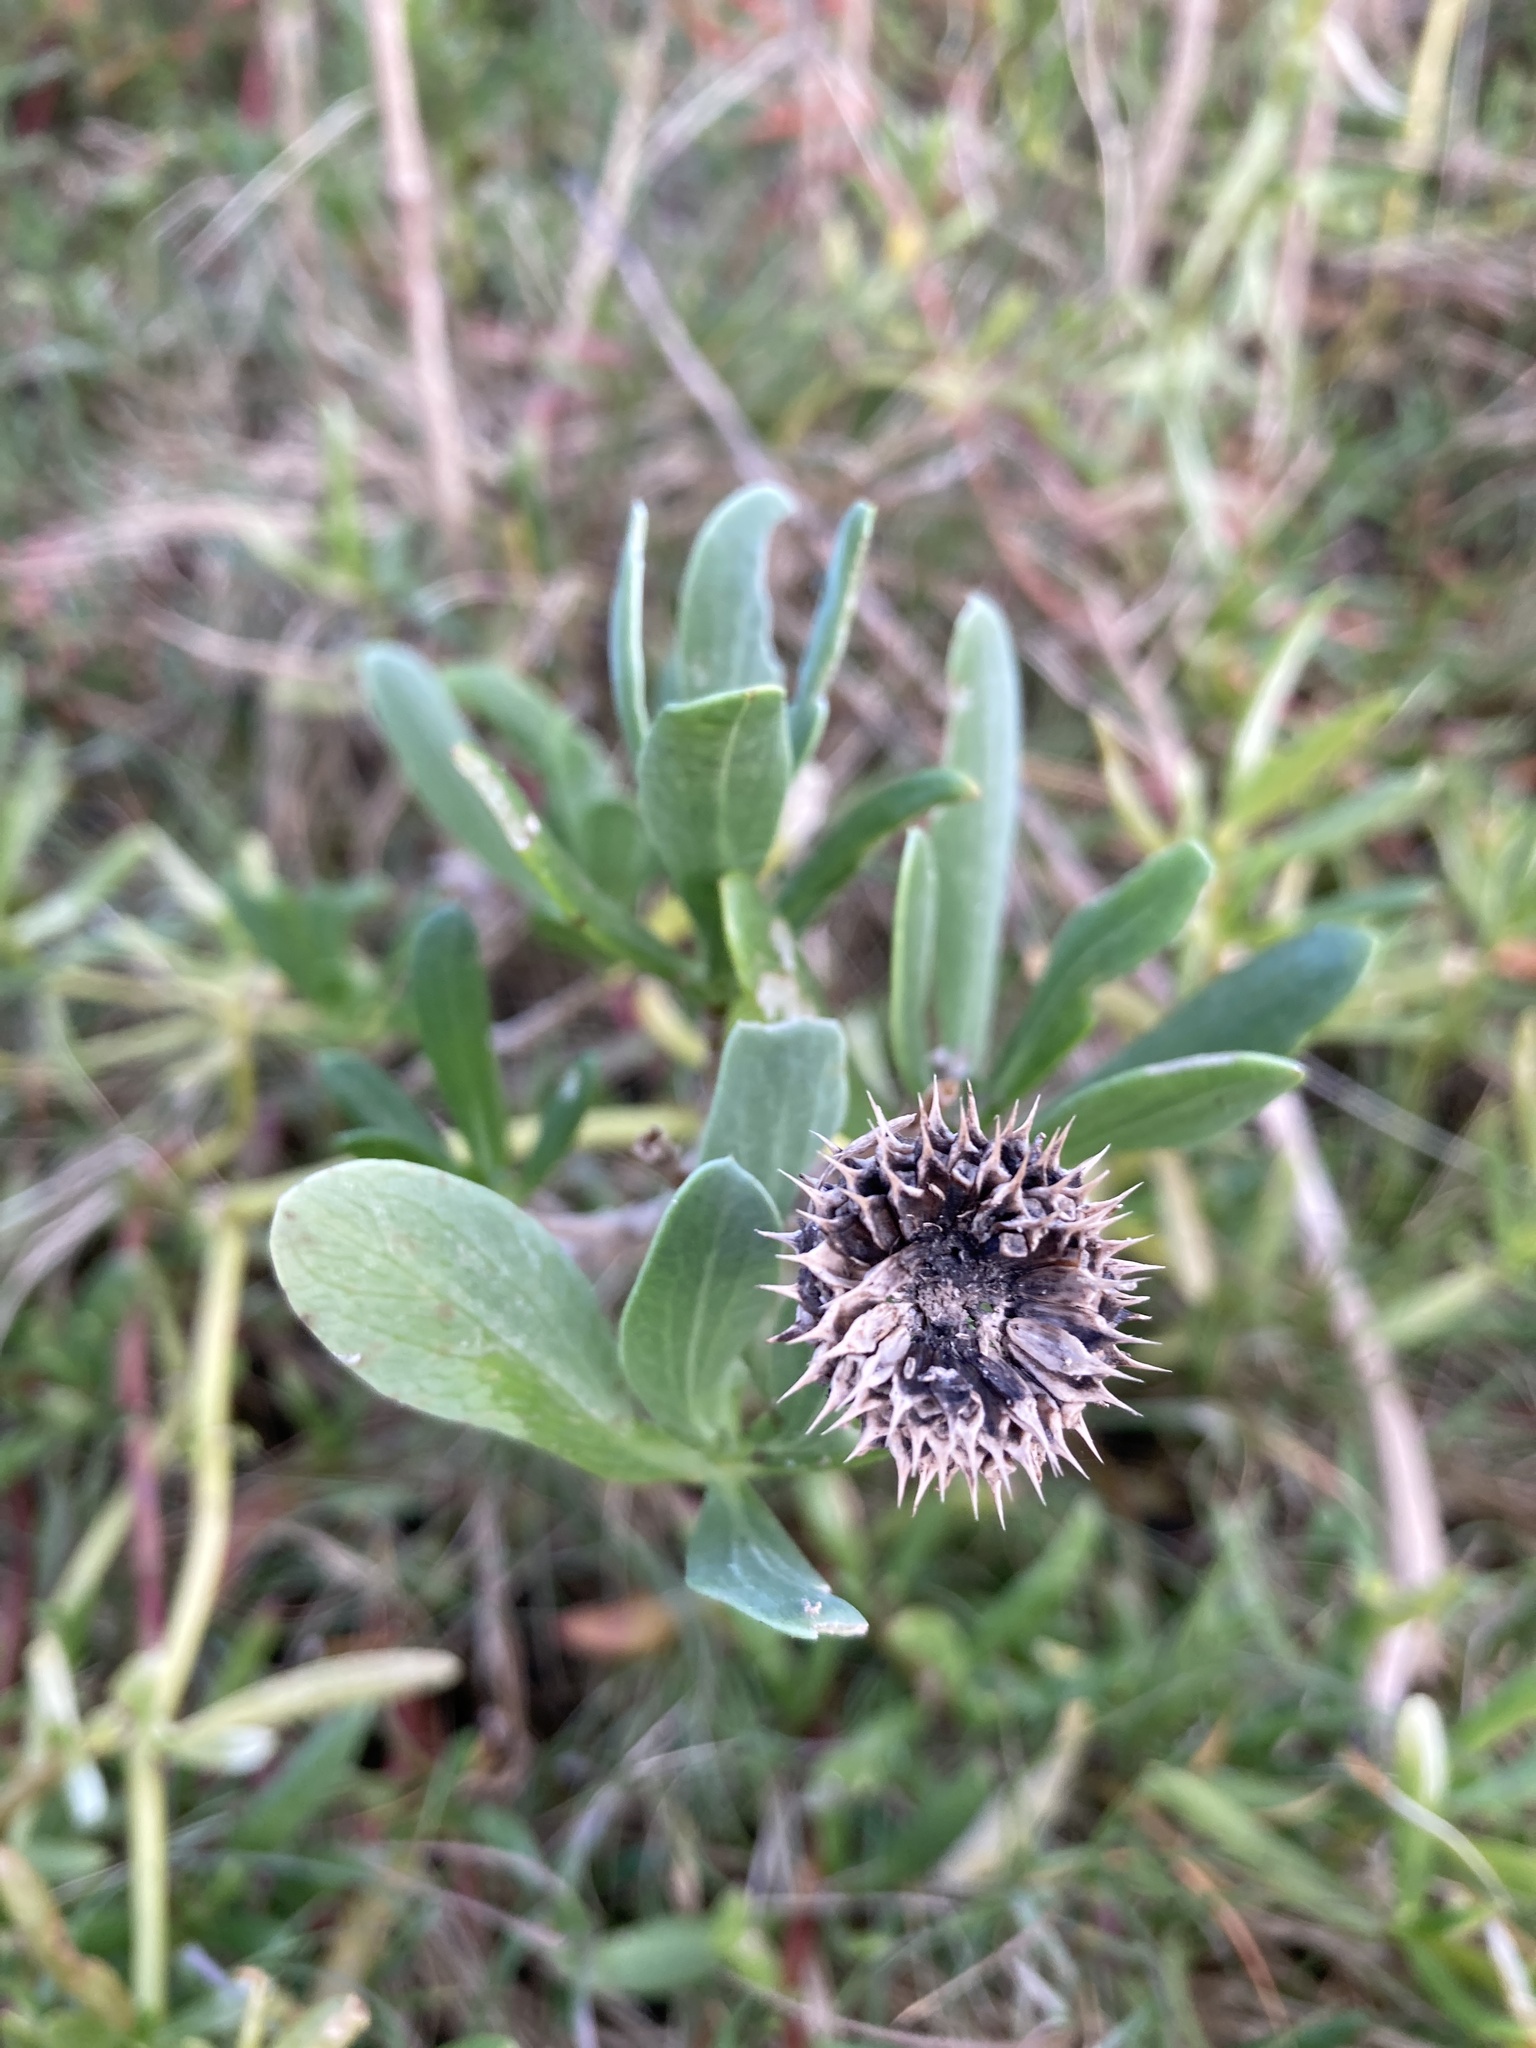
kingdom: Plantae
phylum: Tracheophyta
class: Magnoliopsida
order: Asterales
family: Asteraceae
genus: Borrichia
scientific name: Borrichia frutescens
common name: Sea oxeye
